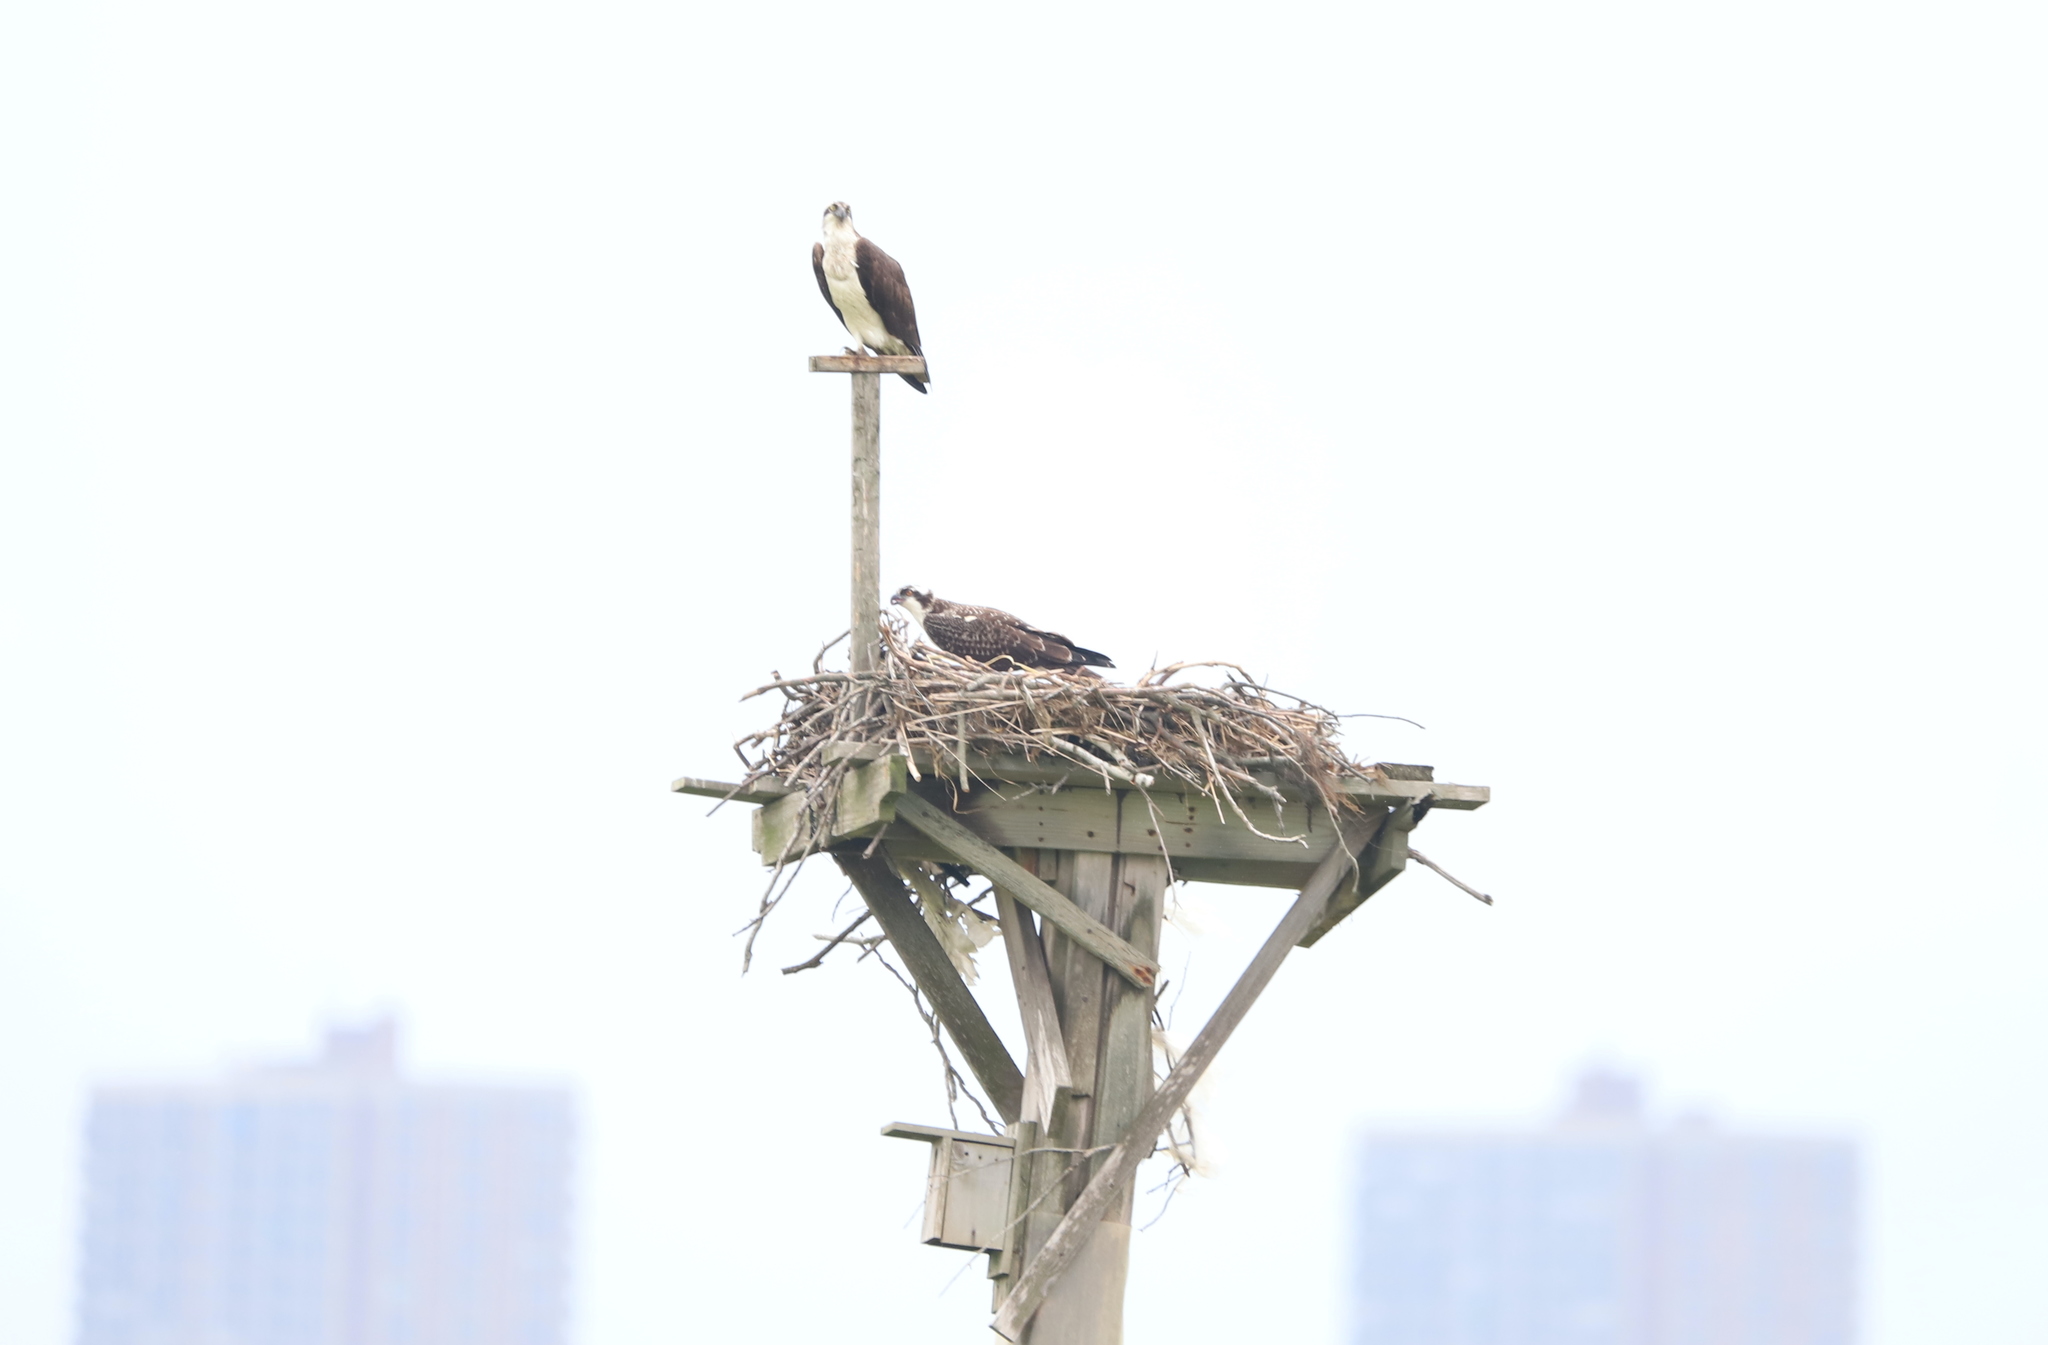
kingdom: Animalia
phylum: Chordata
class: Aves
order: Accipitriformes
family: Pandionidae
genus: Pandion
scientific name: Pandion haliaetus
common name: Osprey
